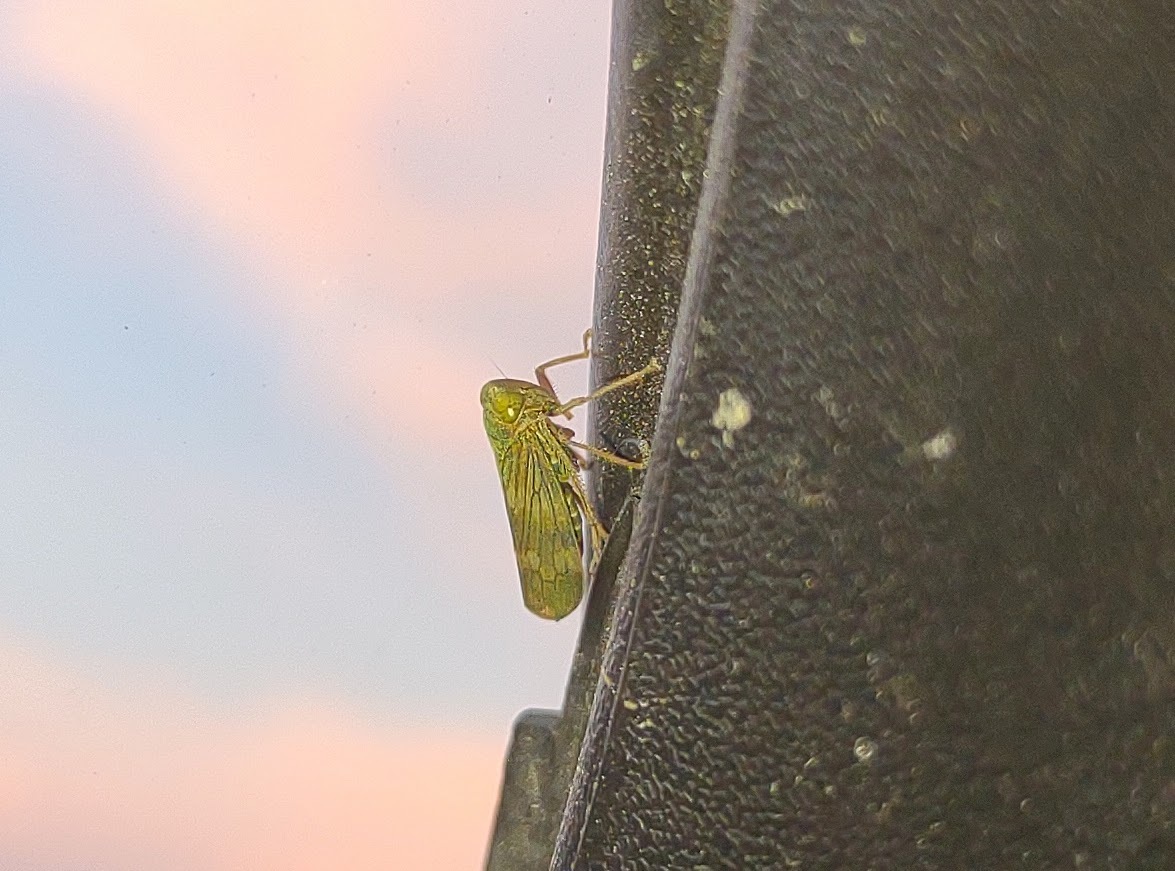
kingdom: Animalia
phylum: Arthropoda
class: Insecta
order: Hemiptera
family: Cicadellidae
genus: Jikradia
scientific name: Jikradia olitoria
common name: Coppery leafhopper
